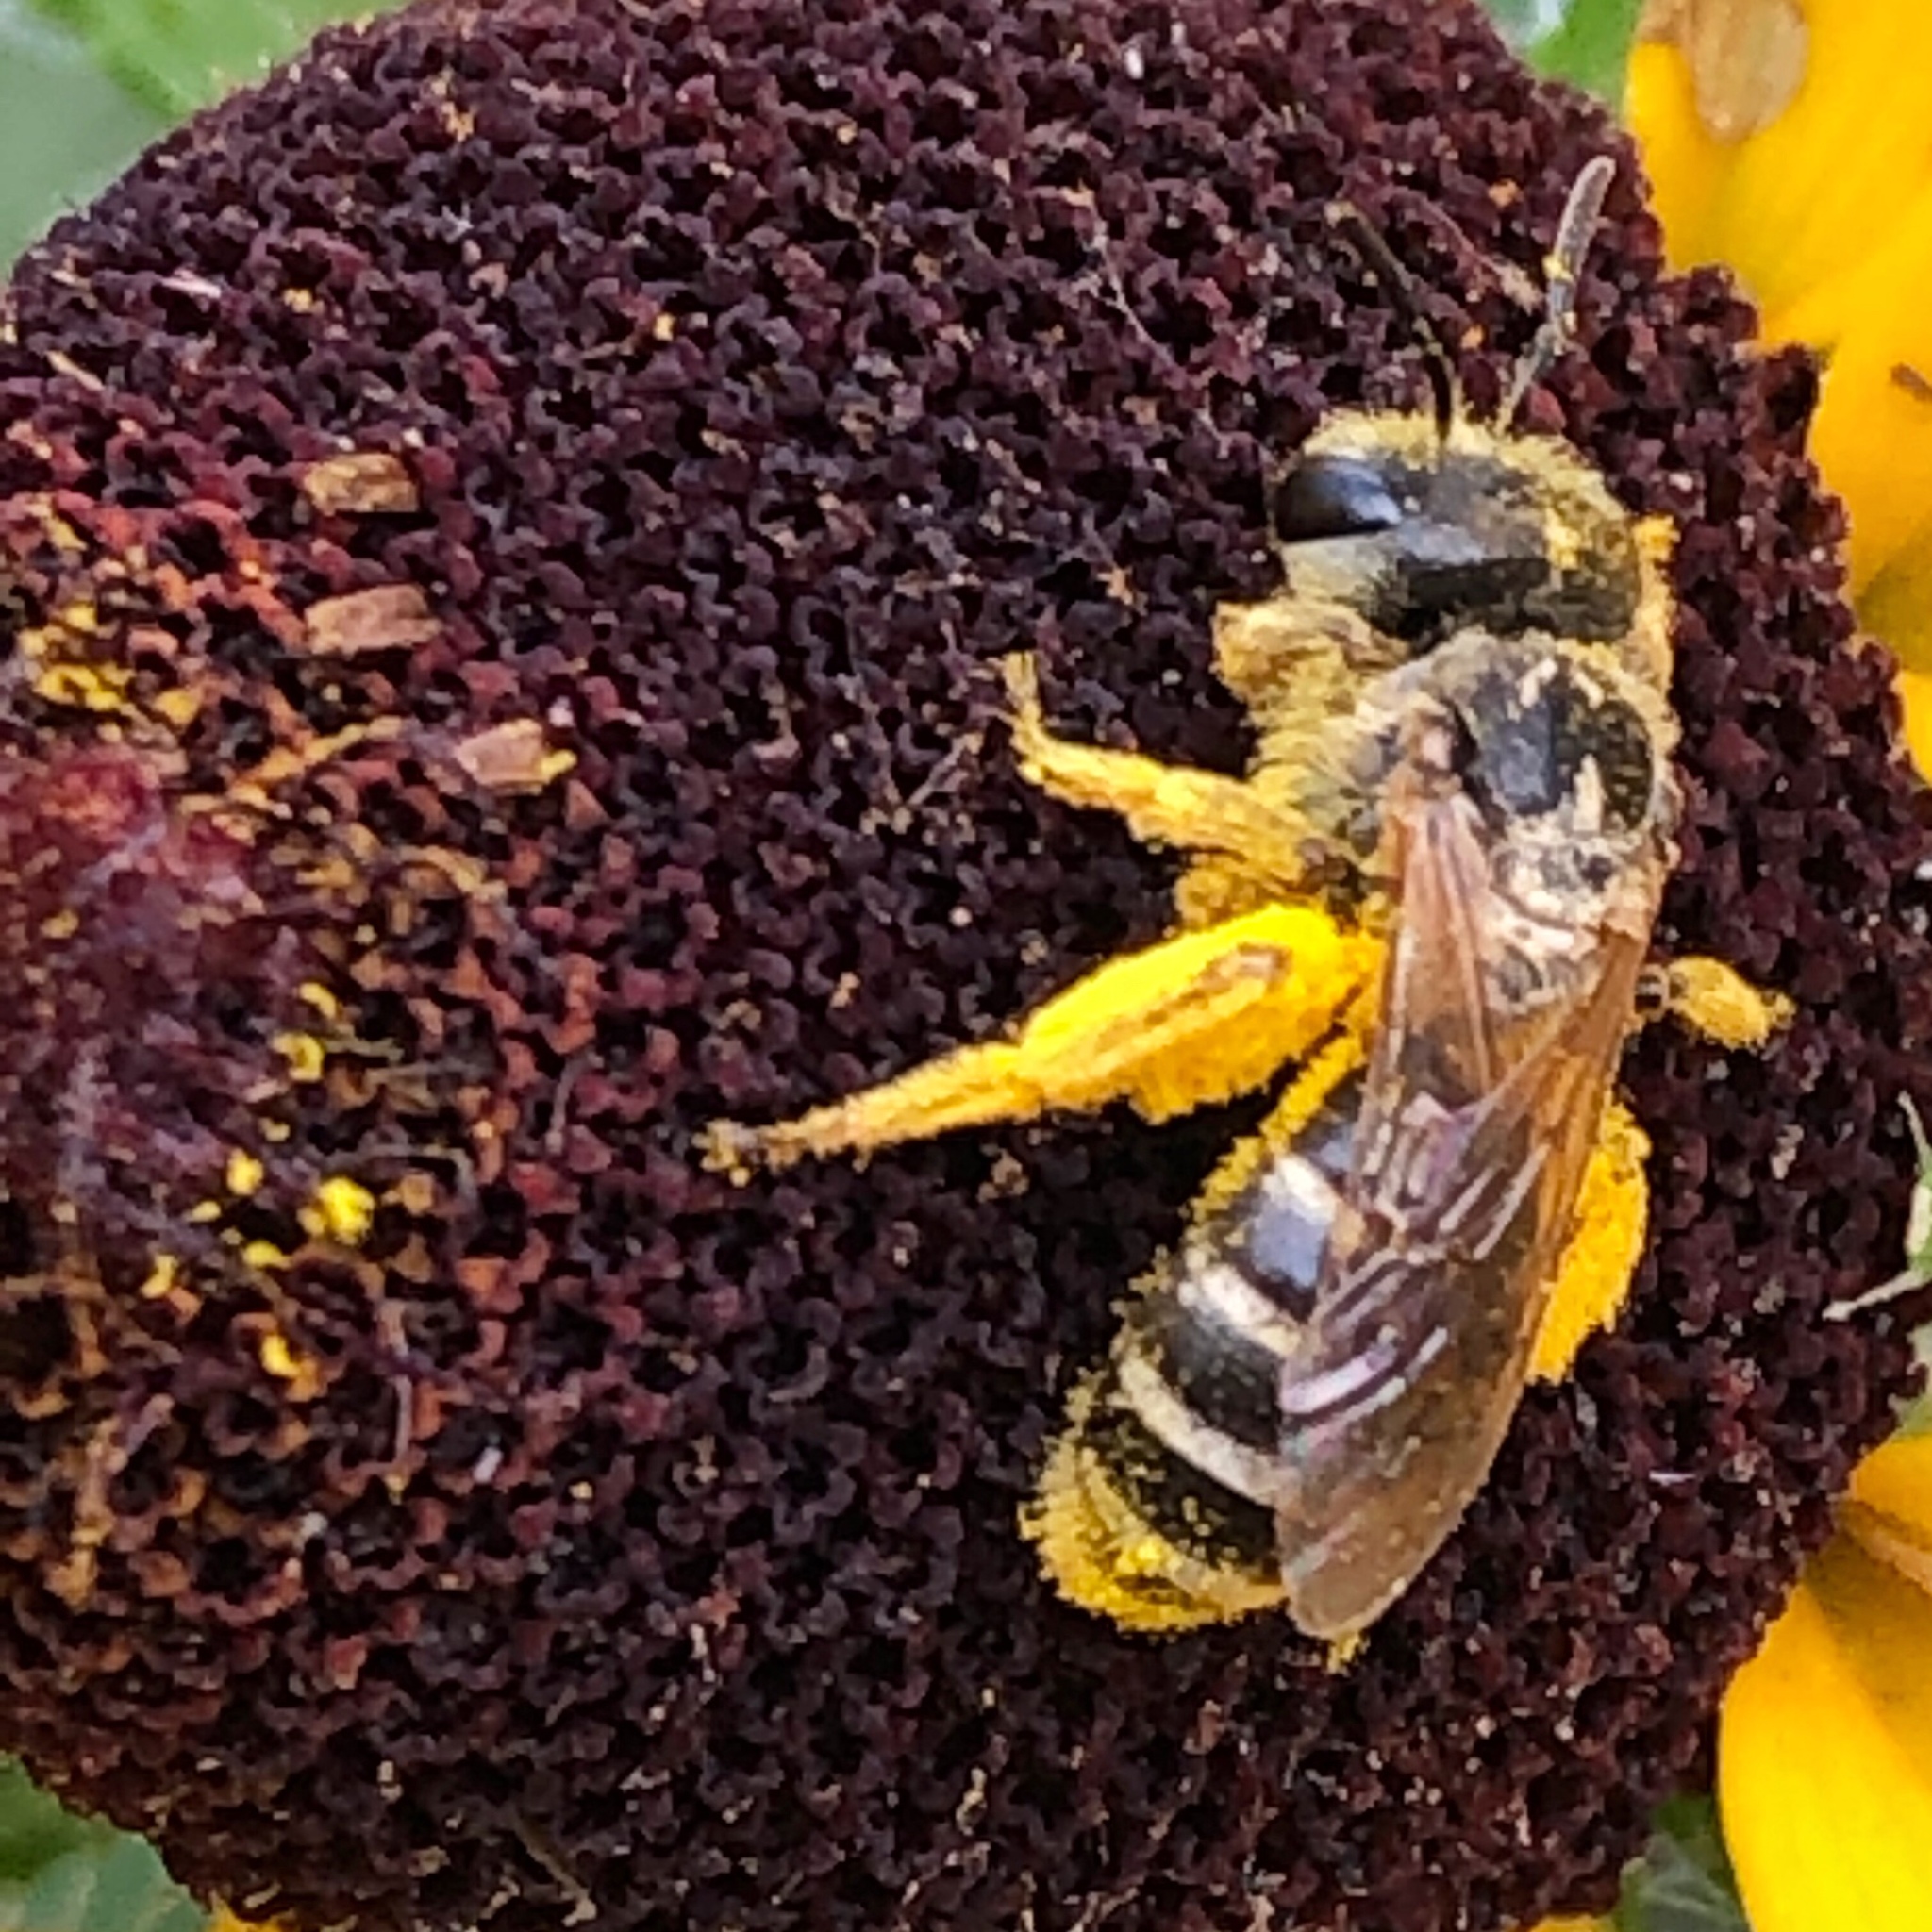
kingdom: Animalia
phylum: Arthropoda
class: Insecta
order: Hymenoptera
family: Halictidae
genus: Halictus
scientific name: Halictus ligatus
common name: Ligated furrow bee
